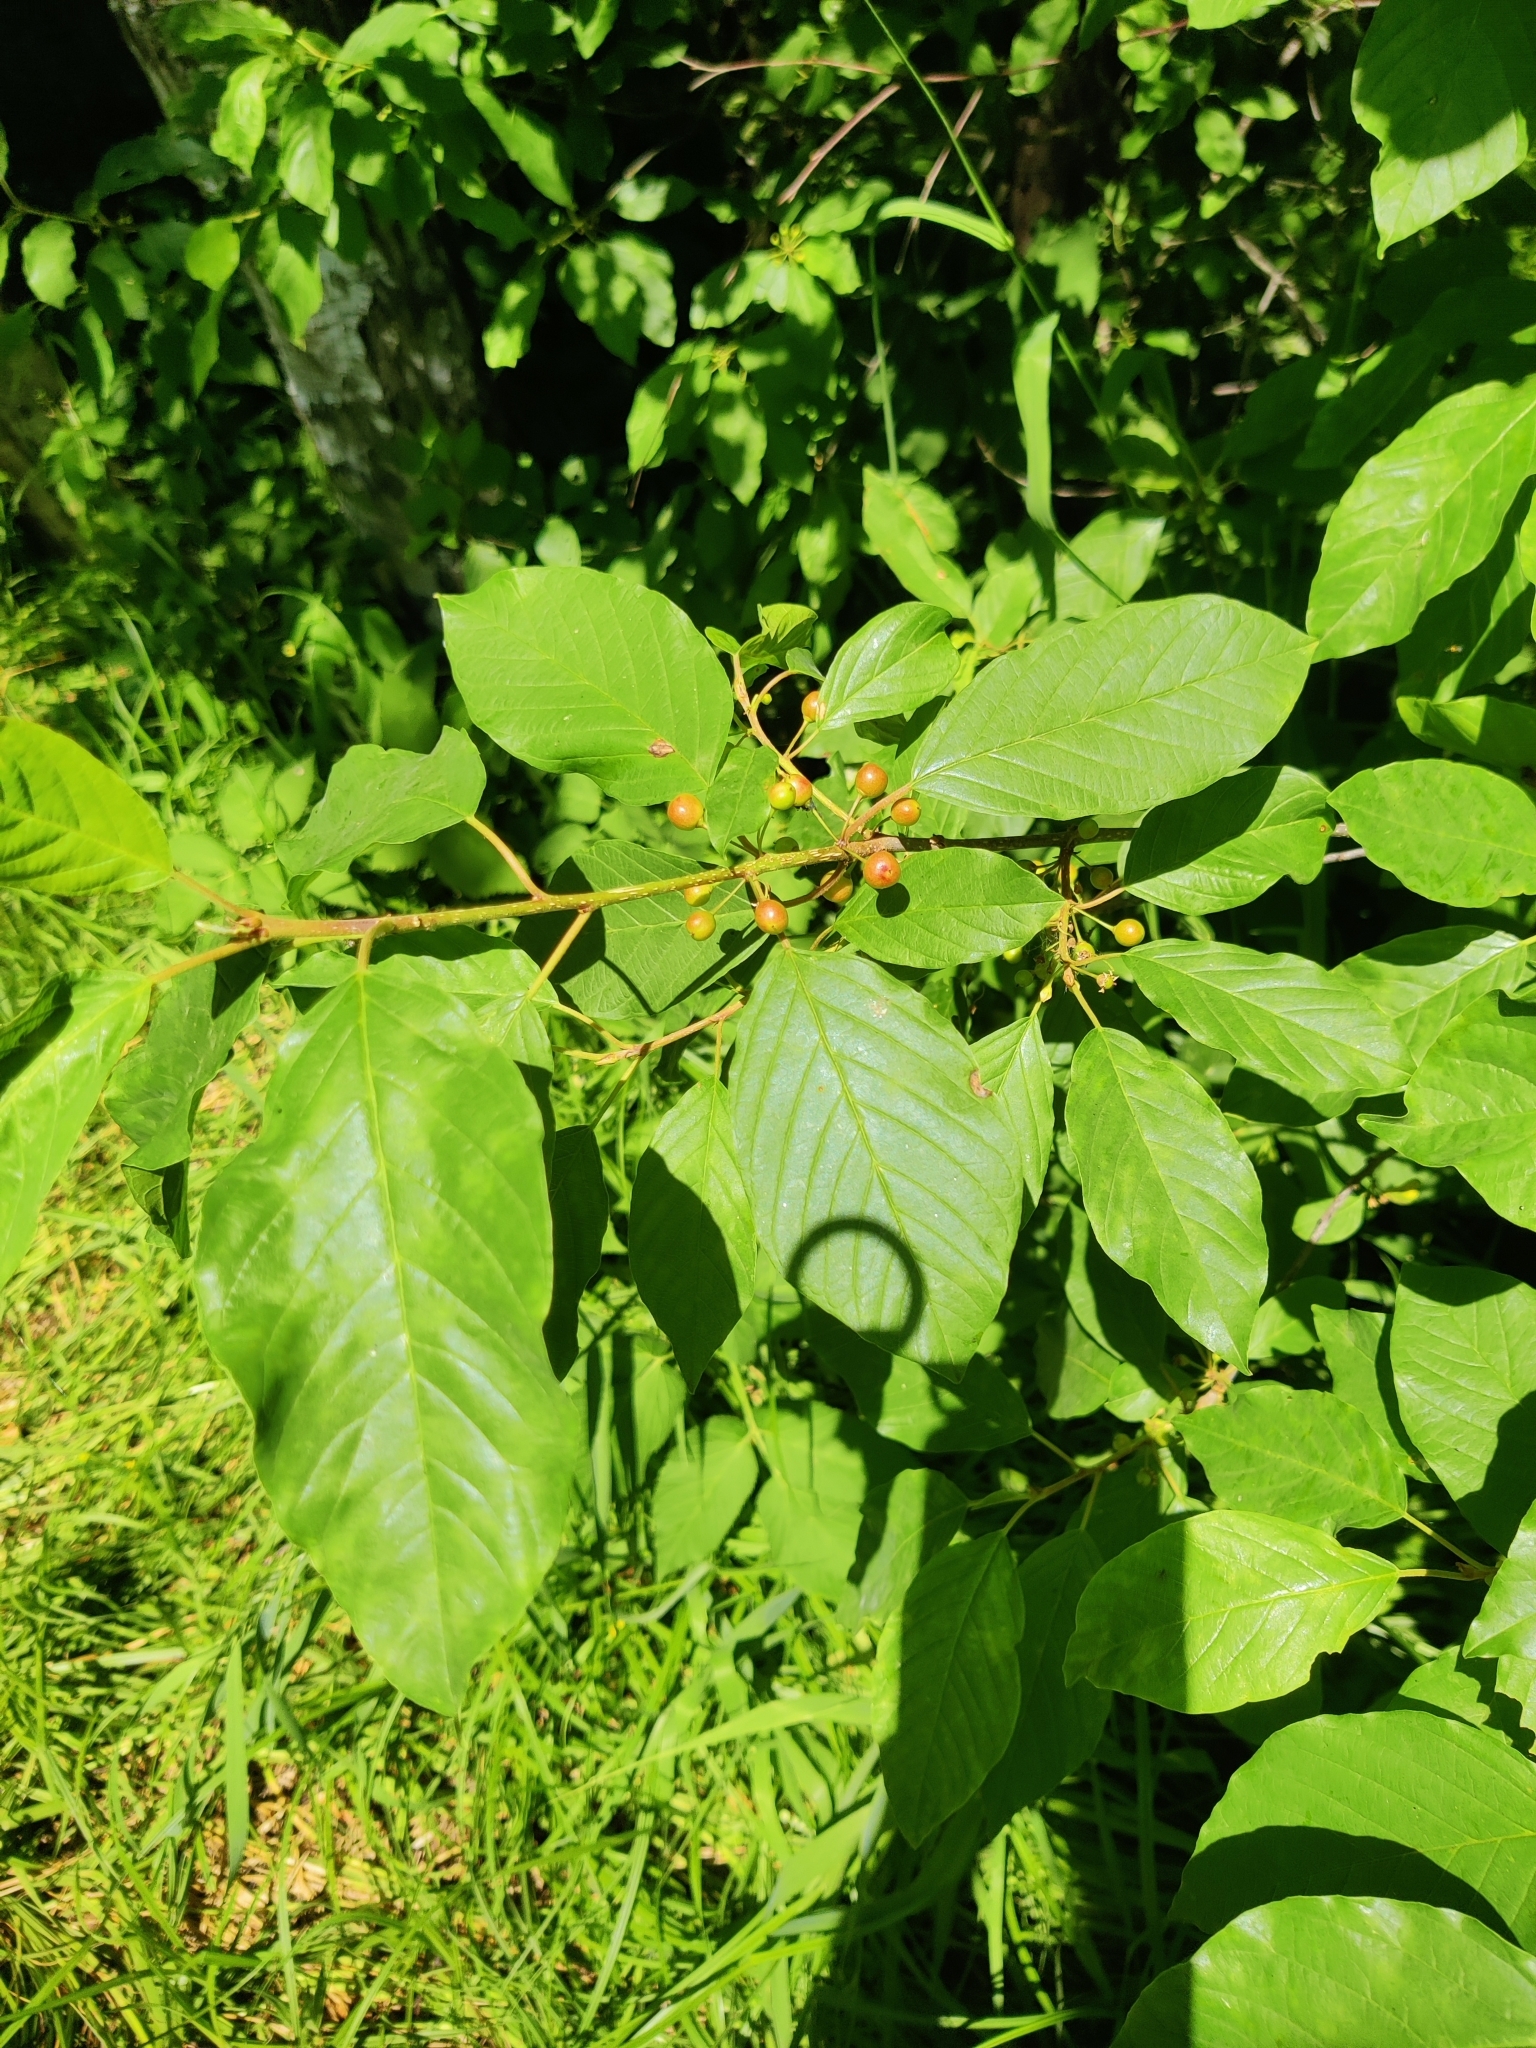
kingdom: Plantae
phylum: Tracheophyta
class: Magnoliopsida
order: Rosales
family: Rhamnaceae
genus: Frangula
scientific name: Frangula alnus
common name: Alder buckthorn
